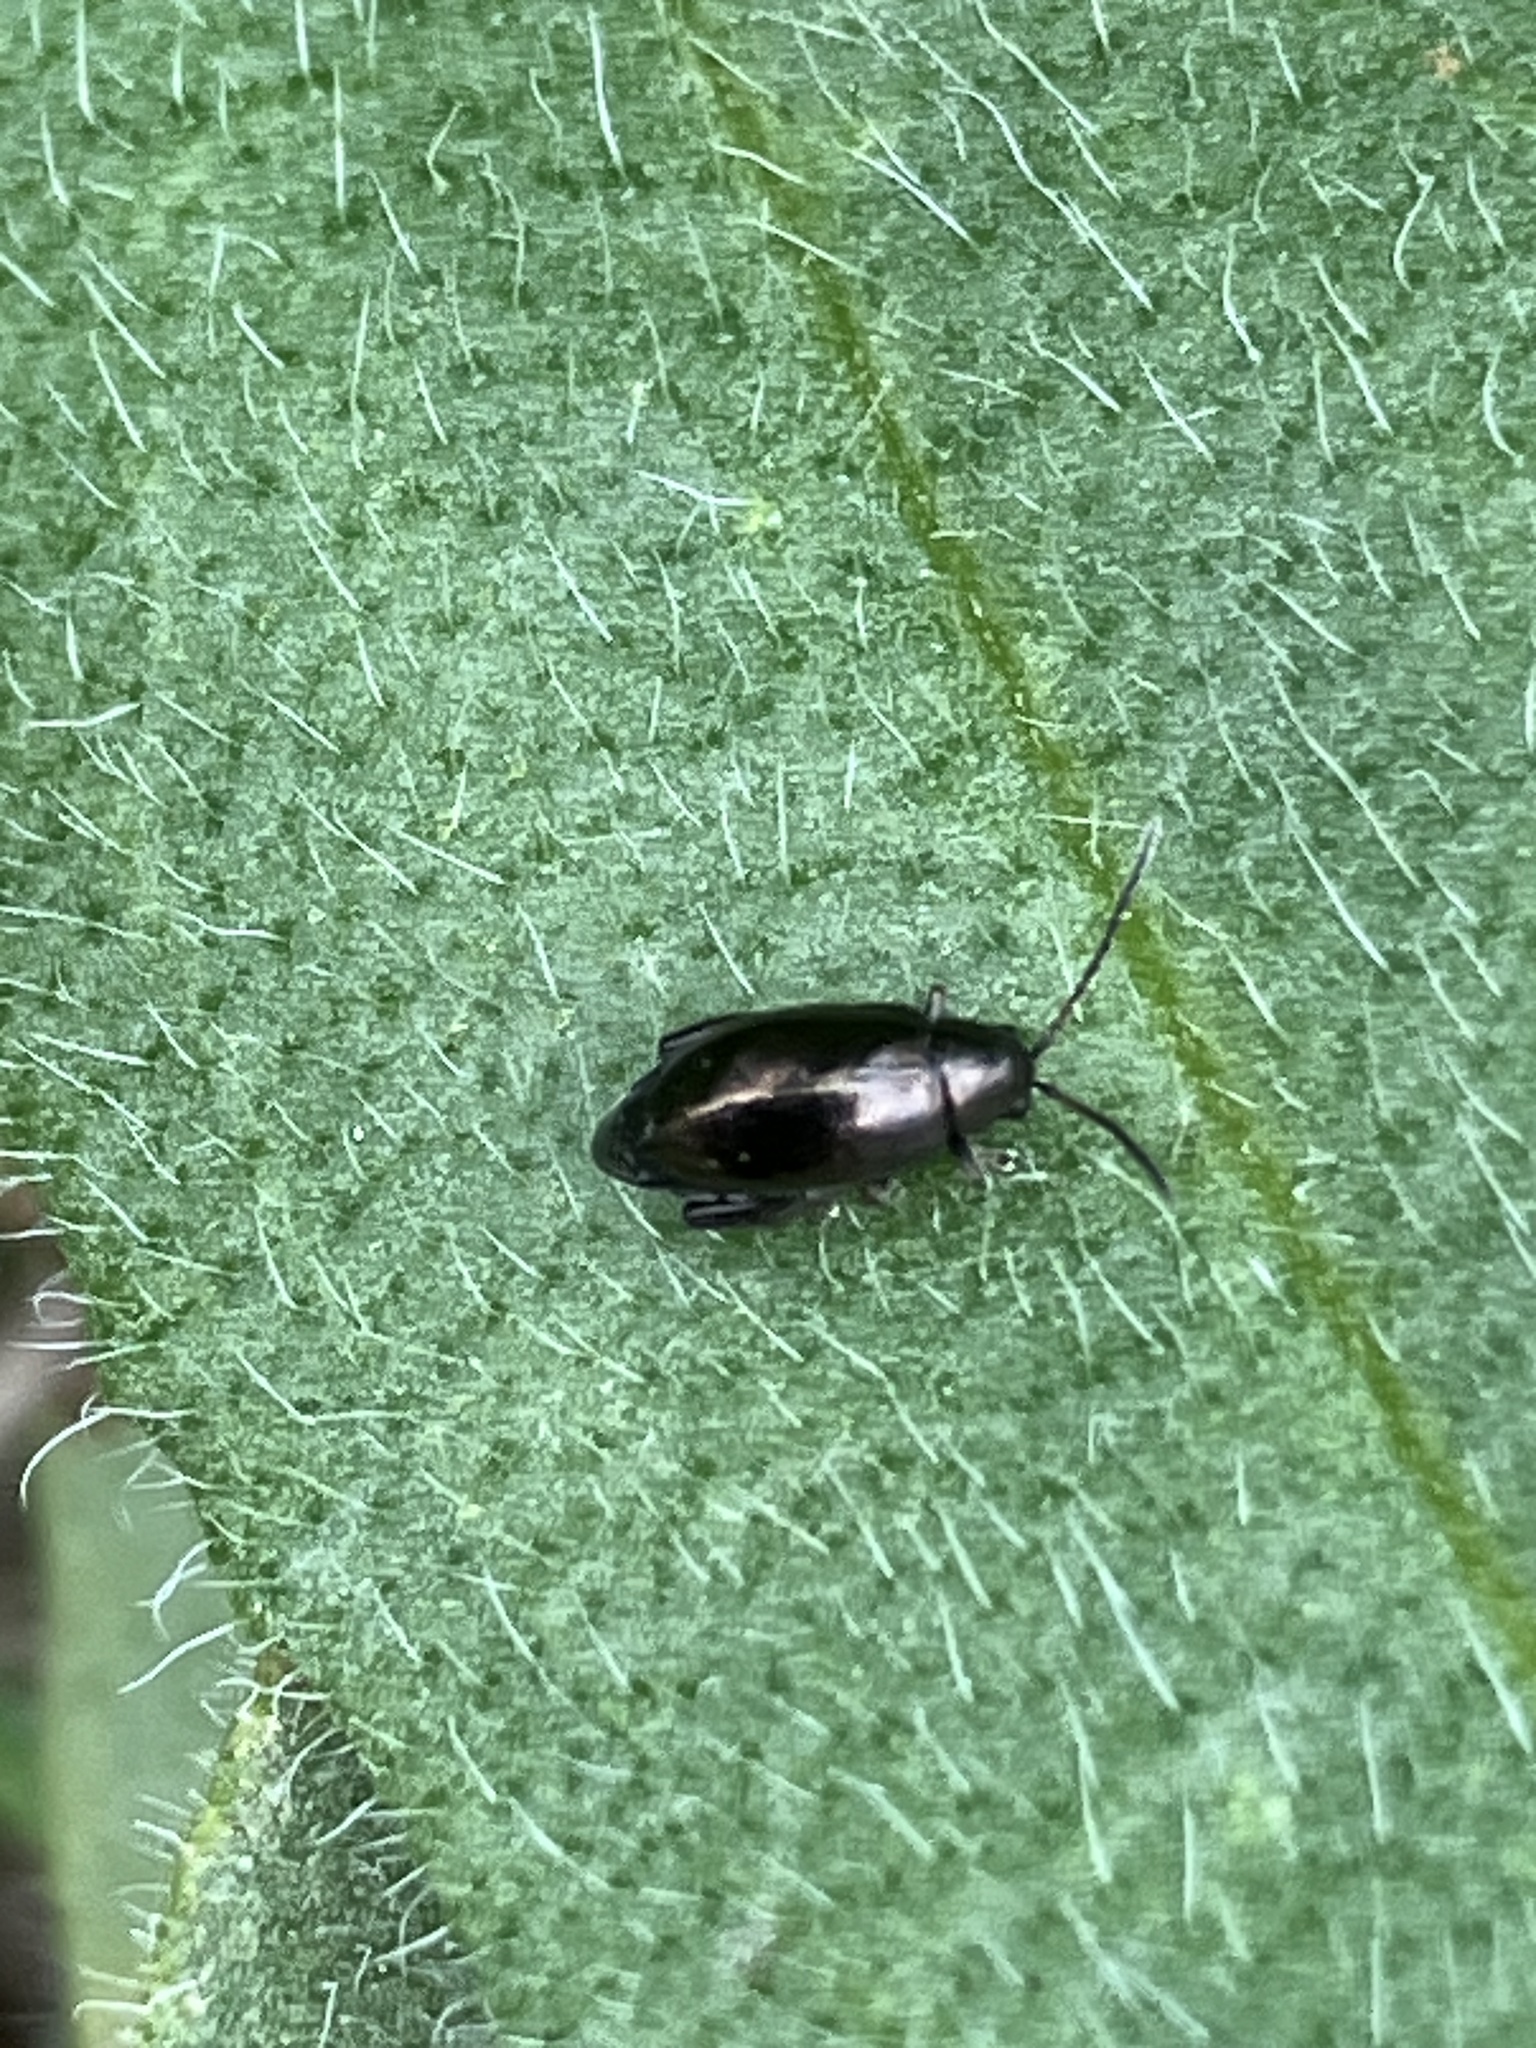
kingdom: Animalia
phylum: Arthropoda
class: Insecta
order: Coleoptera
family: Chrysomelidae
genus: Longitarsus
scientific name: Longitarsus echii
